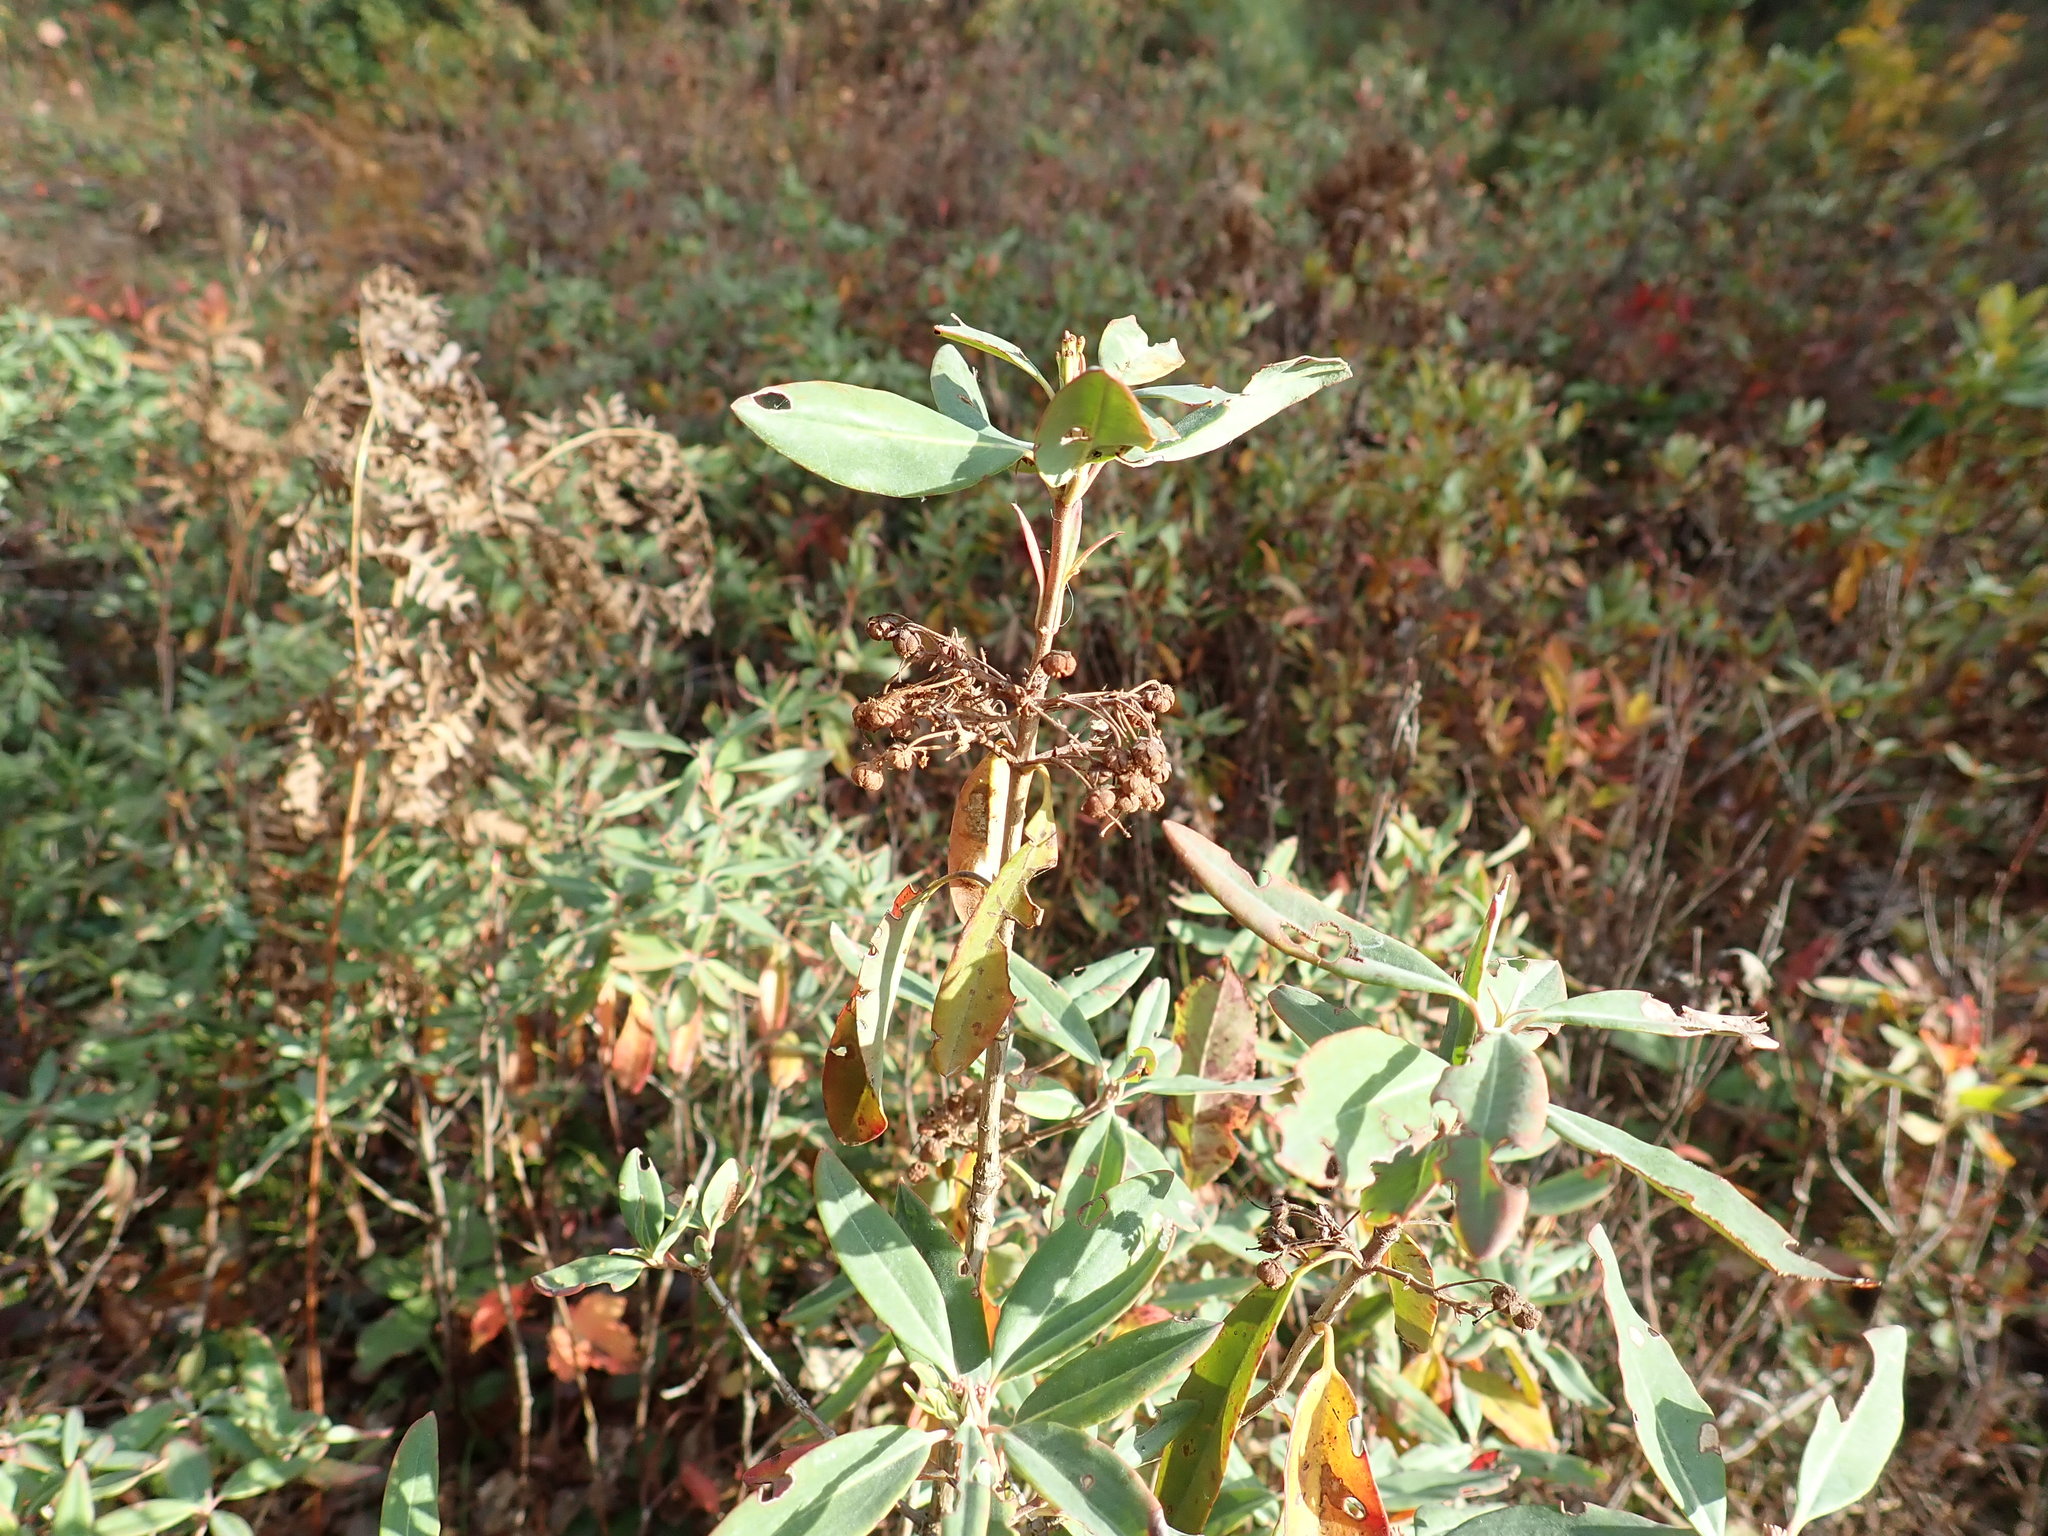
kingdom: Plantae
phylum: Tracheophyta
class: Magnoliopsida
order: Ericales
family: Ericaceae
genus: Kalmia
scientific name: Kalmia angustifolia
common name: Sheep-laurel
